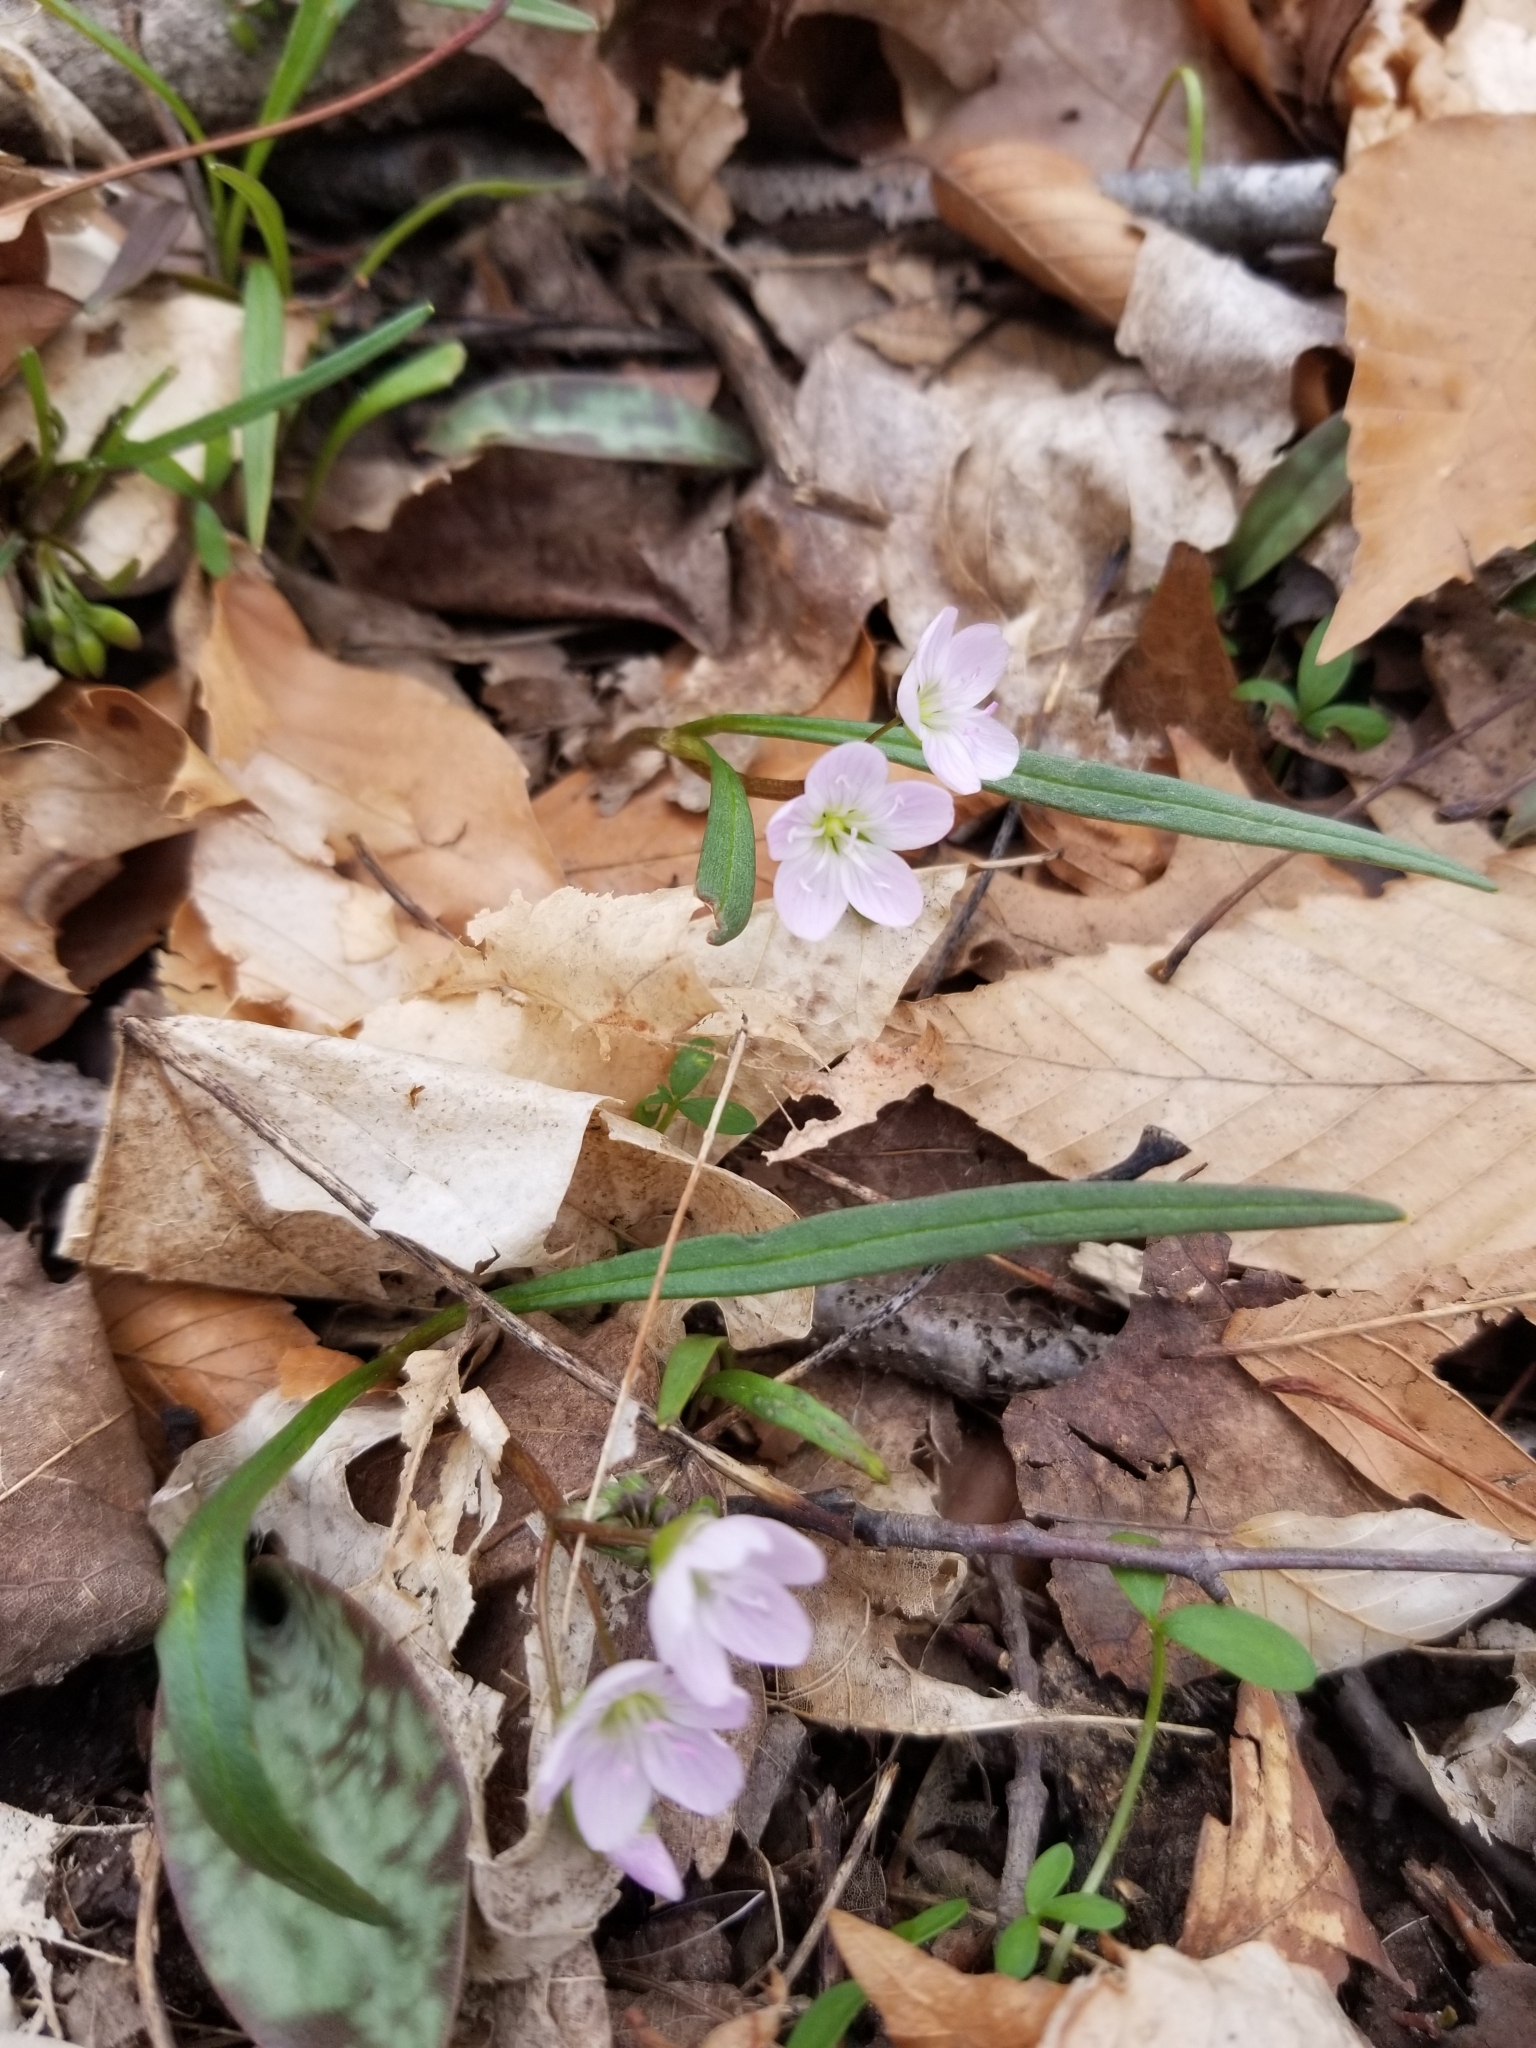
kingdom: Plantae
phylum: Tracheophyta
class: Magnoliopsida
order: Caryophyllales
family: Montiaceae
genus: Claytonia
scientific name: Claytonia virginica
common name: Virginia springbeauty
